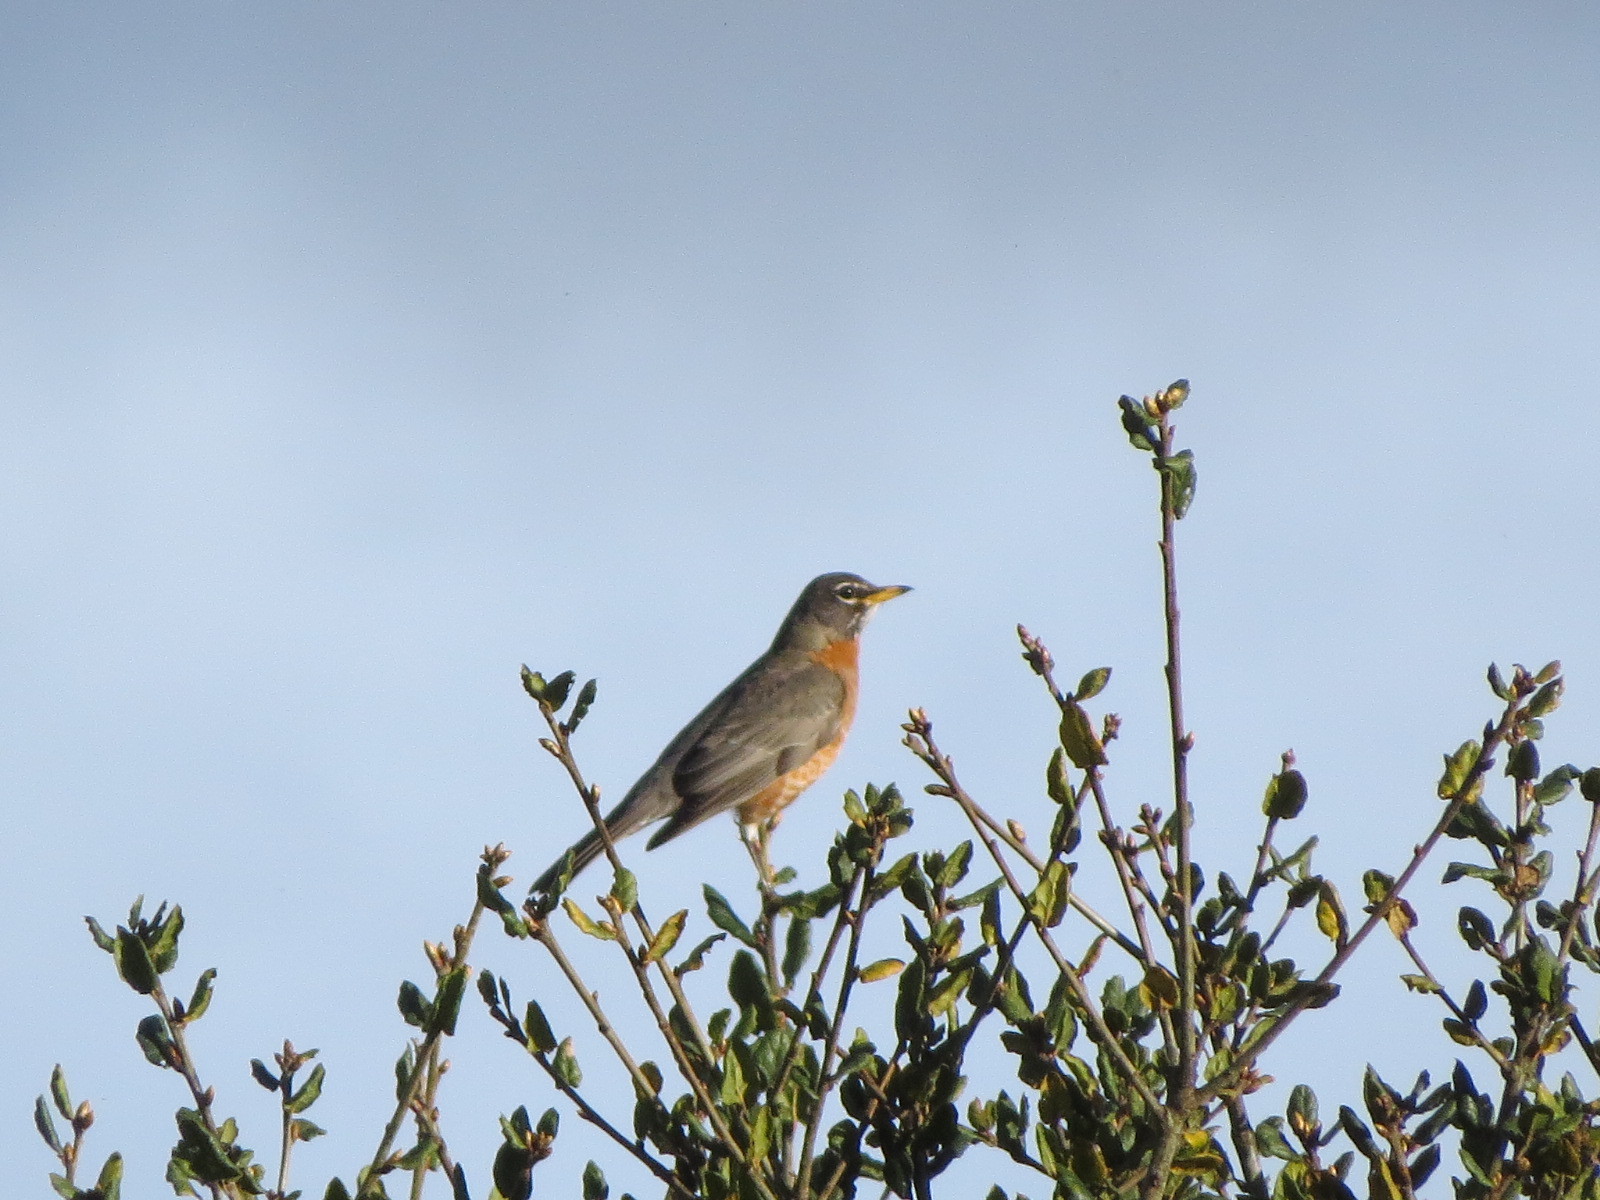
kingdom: Animalia
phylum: Chordata
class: Aves
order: Passeriformes
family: Turdidae
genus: Turdus
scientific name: Turdus migratorius
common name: American robin
